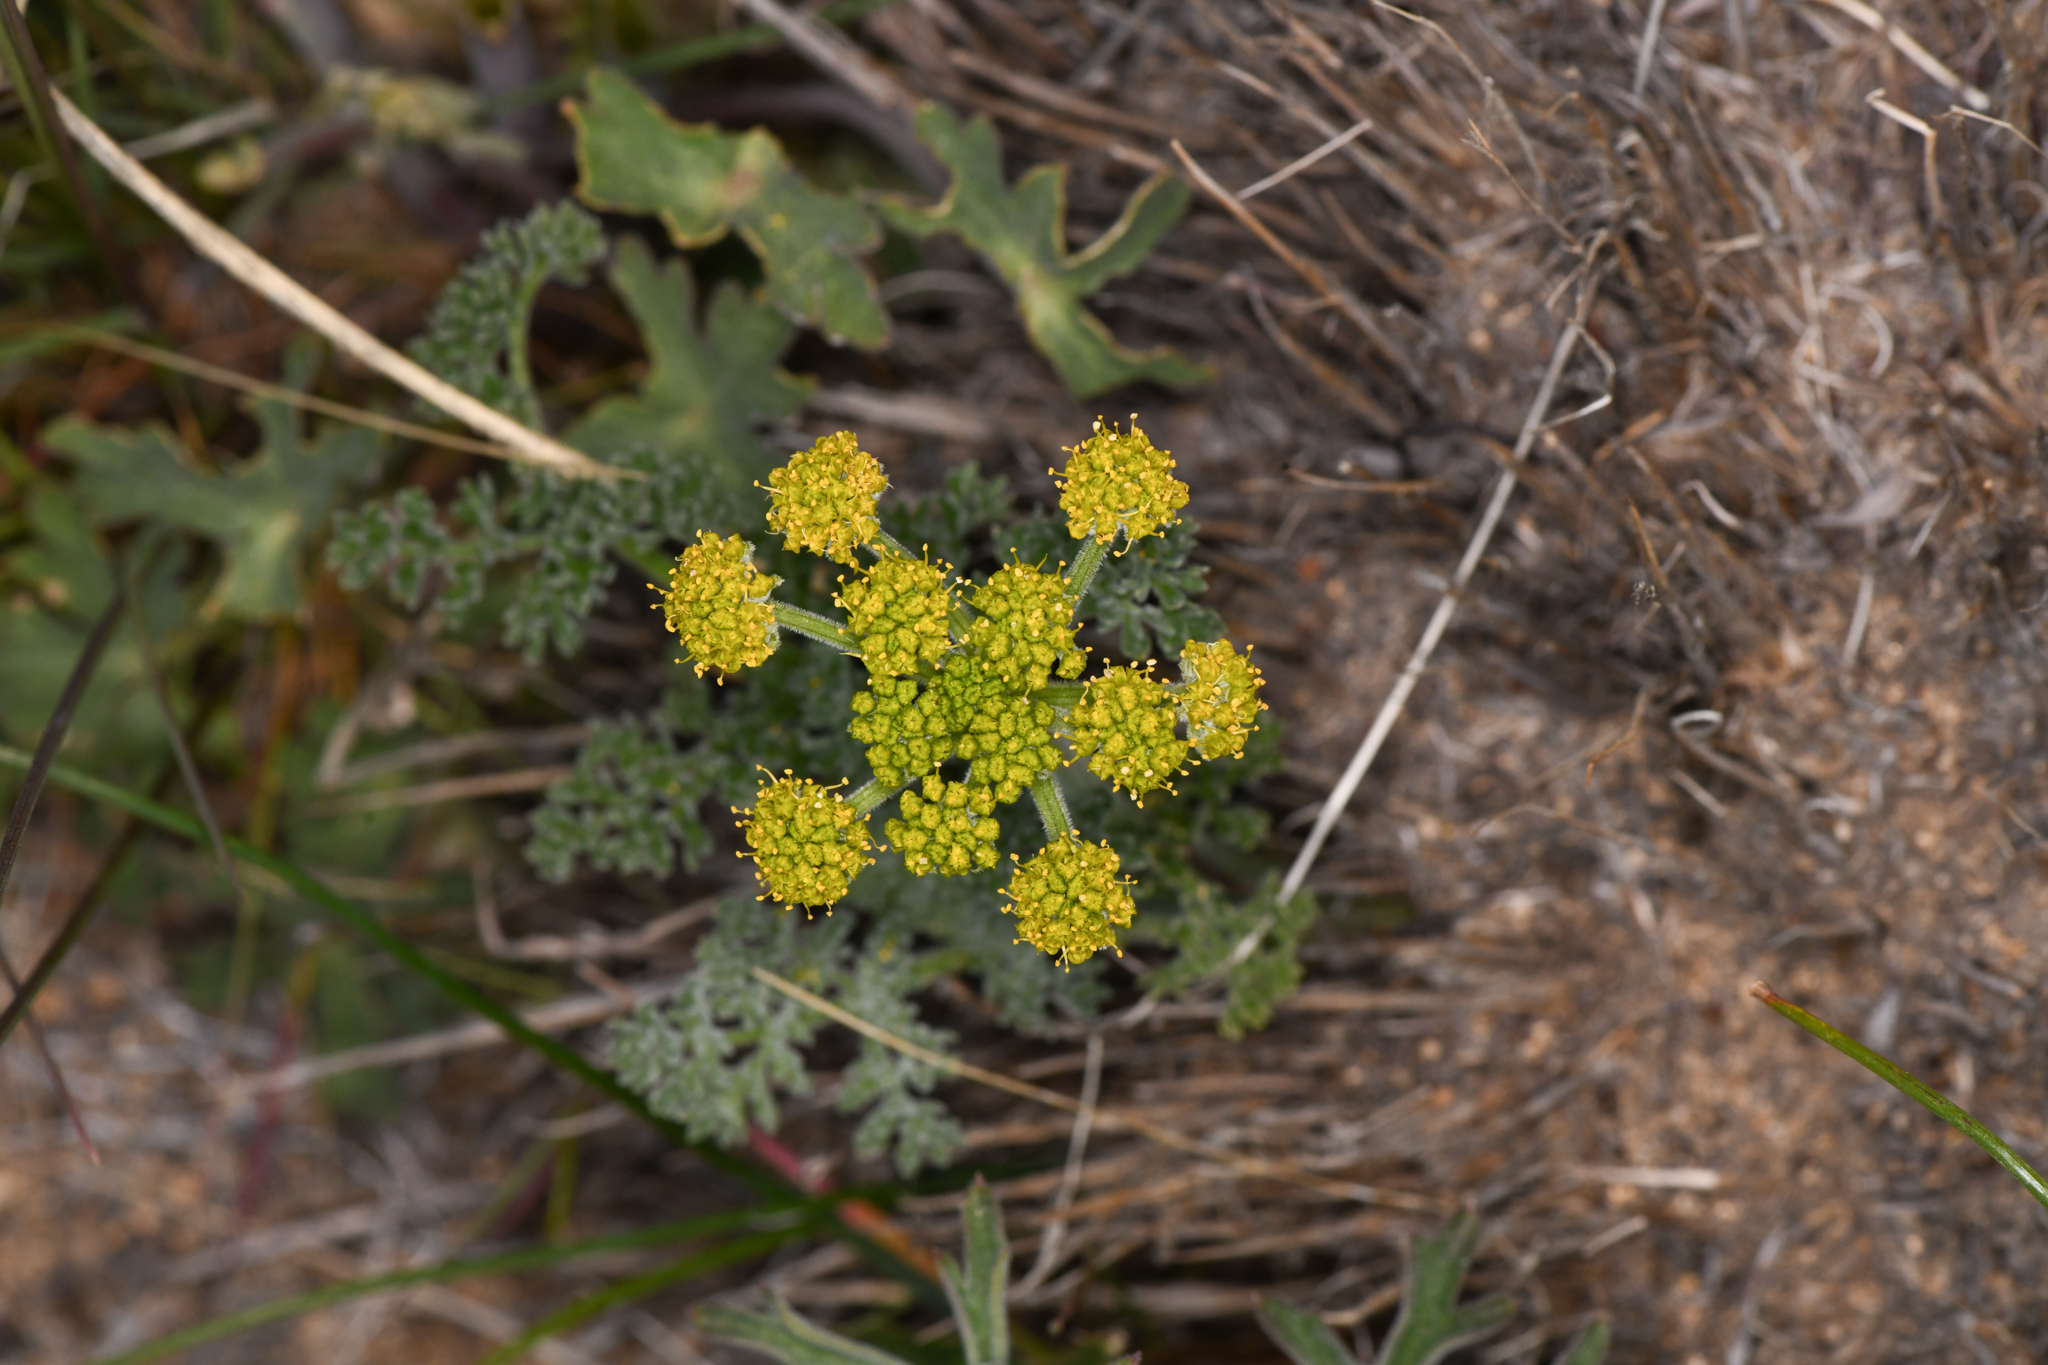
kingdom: Plantae
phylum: Tracheophyta
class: Magnoliopsida
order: Apiales
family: Apiaceae
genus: Lomatium
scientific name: Lomatium mohavense
